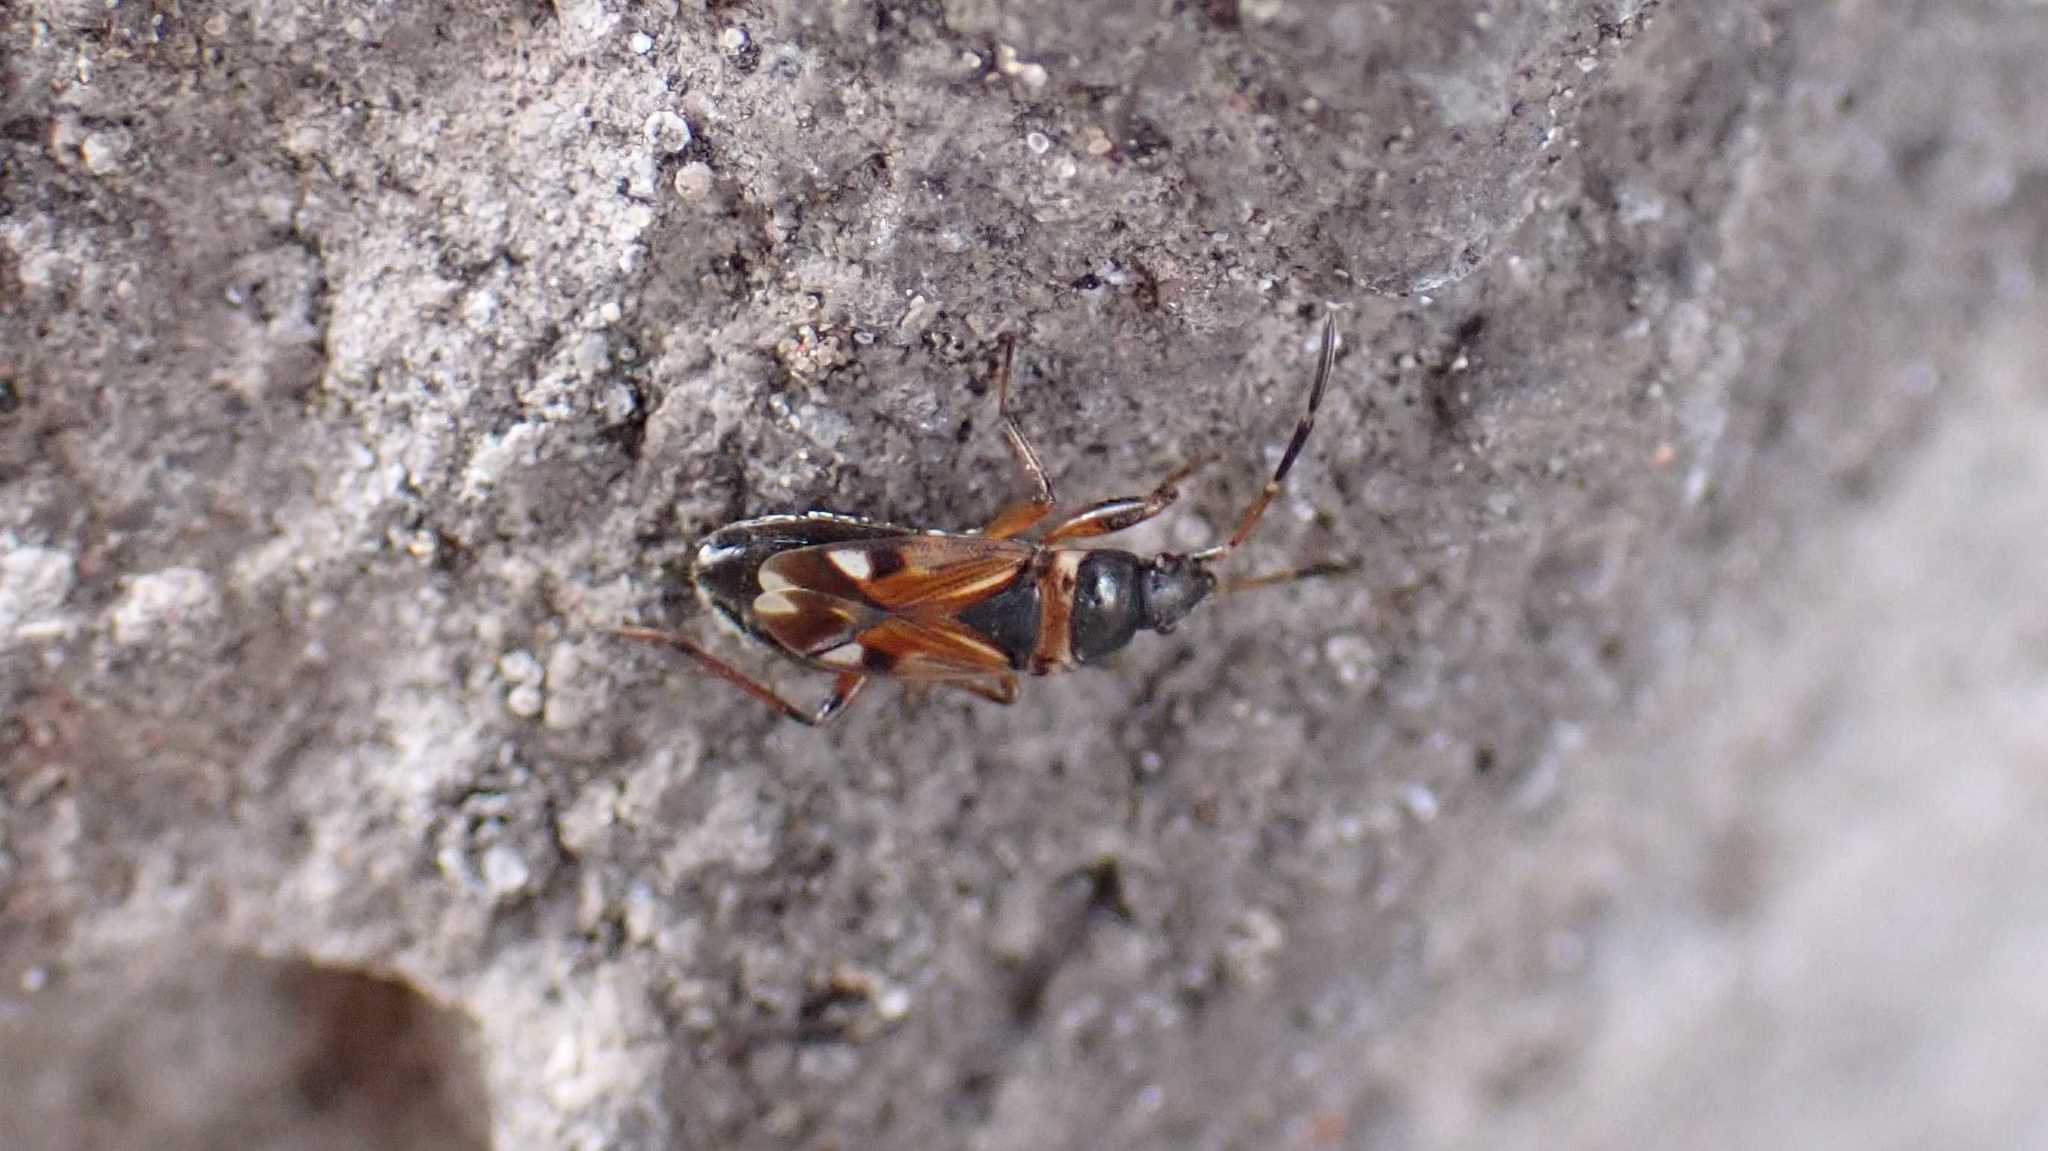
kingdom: Animalia
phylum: Arthropoda
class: Insecta
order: Hemiptera
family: Rhyparochromidae
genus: Raglius
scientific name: Raglius alboacuminatus
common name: Dirt-colored seed bug
